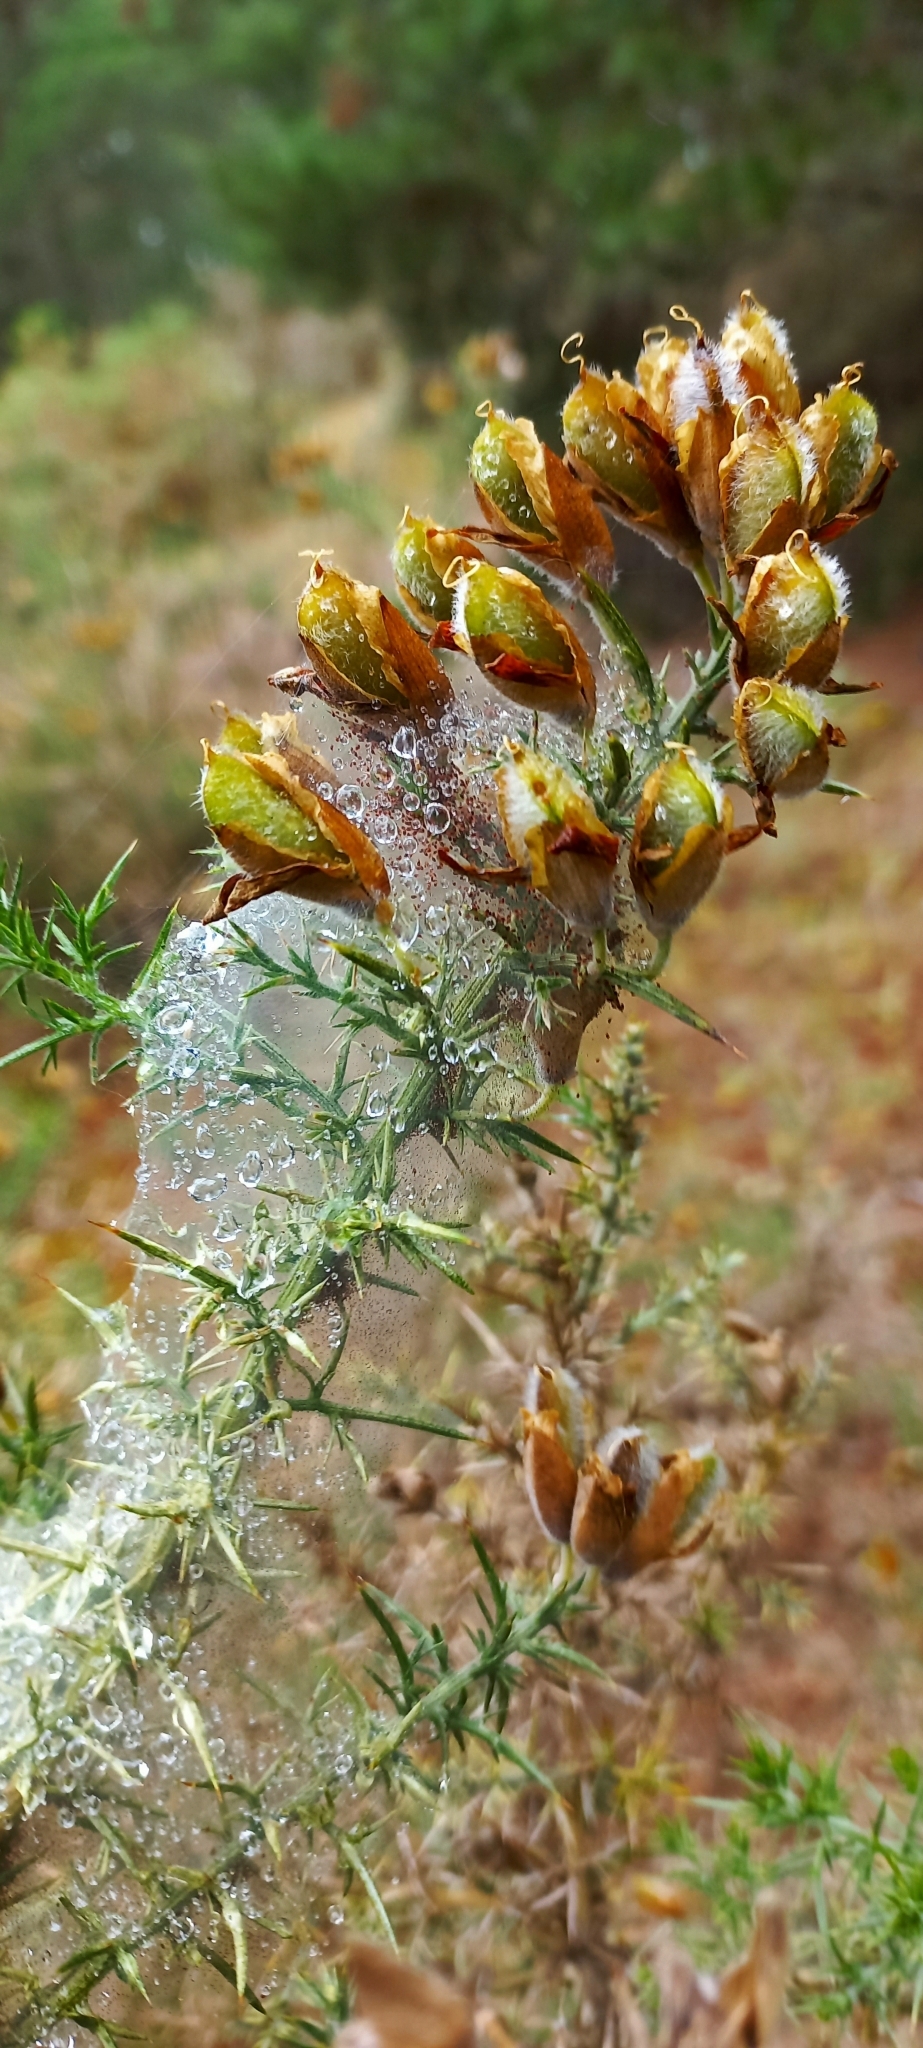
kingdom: Animalia
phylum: Arthropoda
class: Arachnida
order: Trombidiformes
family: Tetranychidae
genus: Tetranychus
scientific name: Tetranychus lintearius
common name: Gorse spider mite
